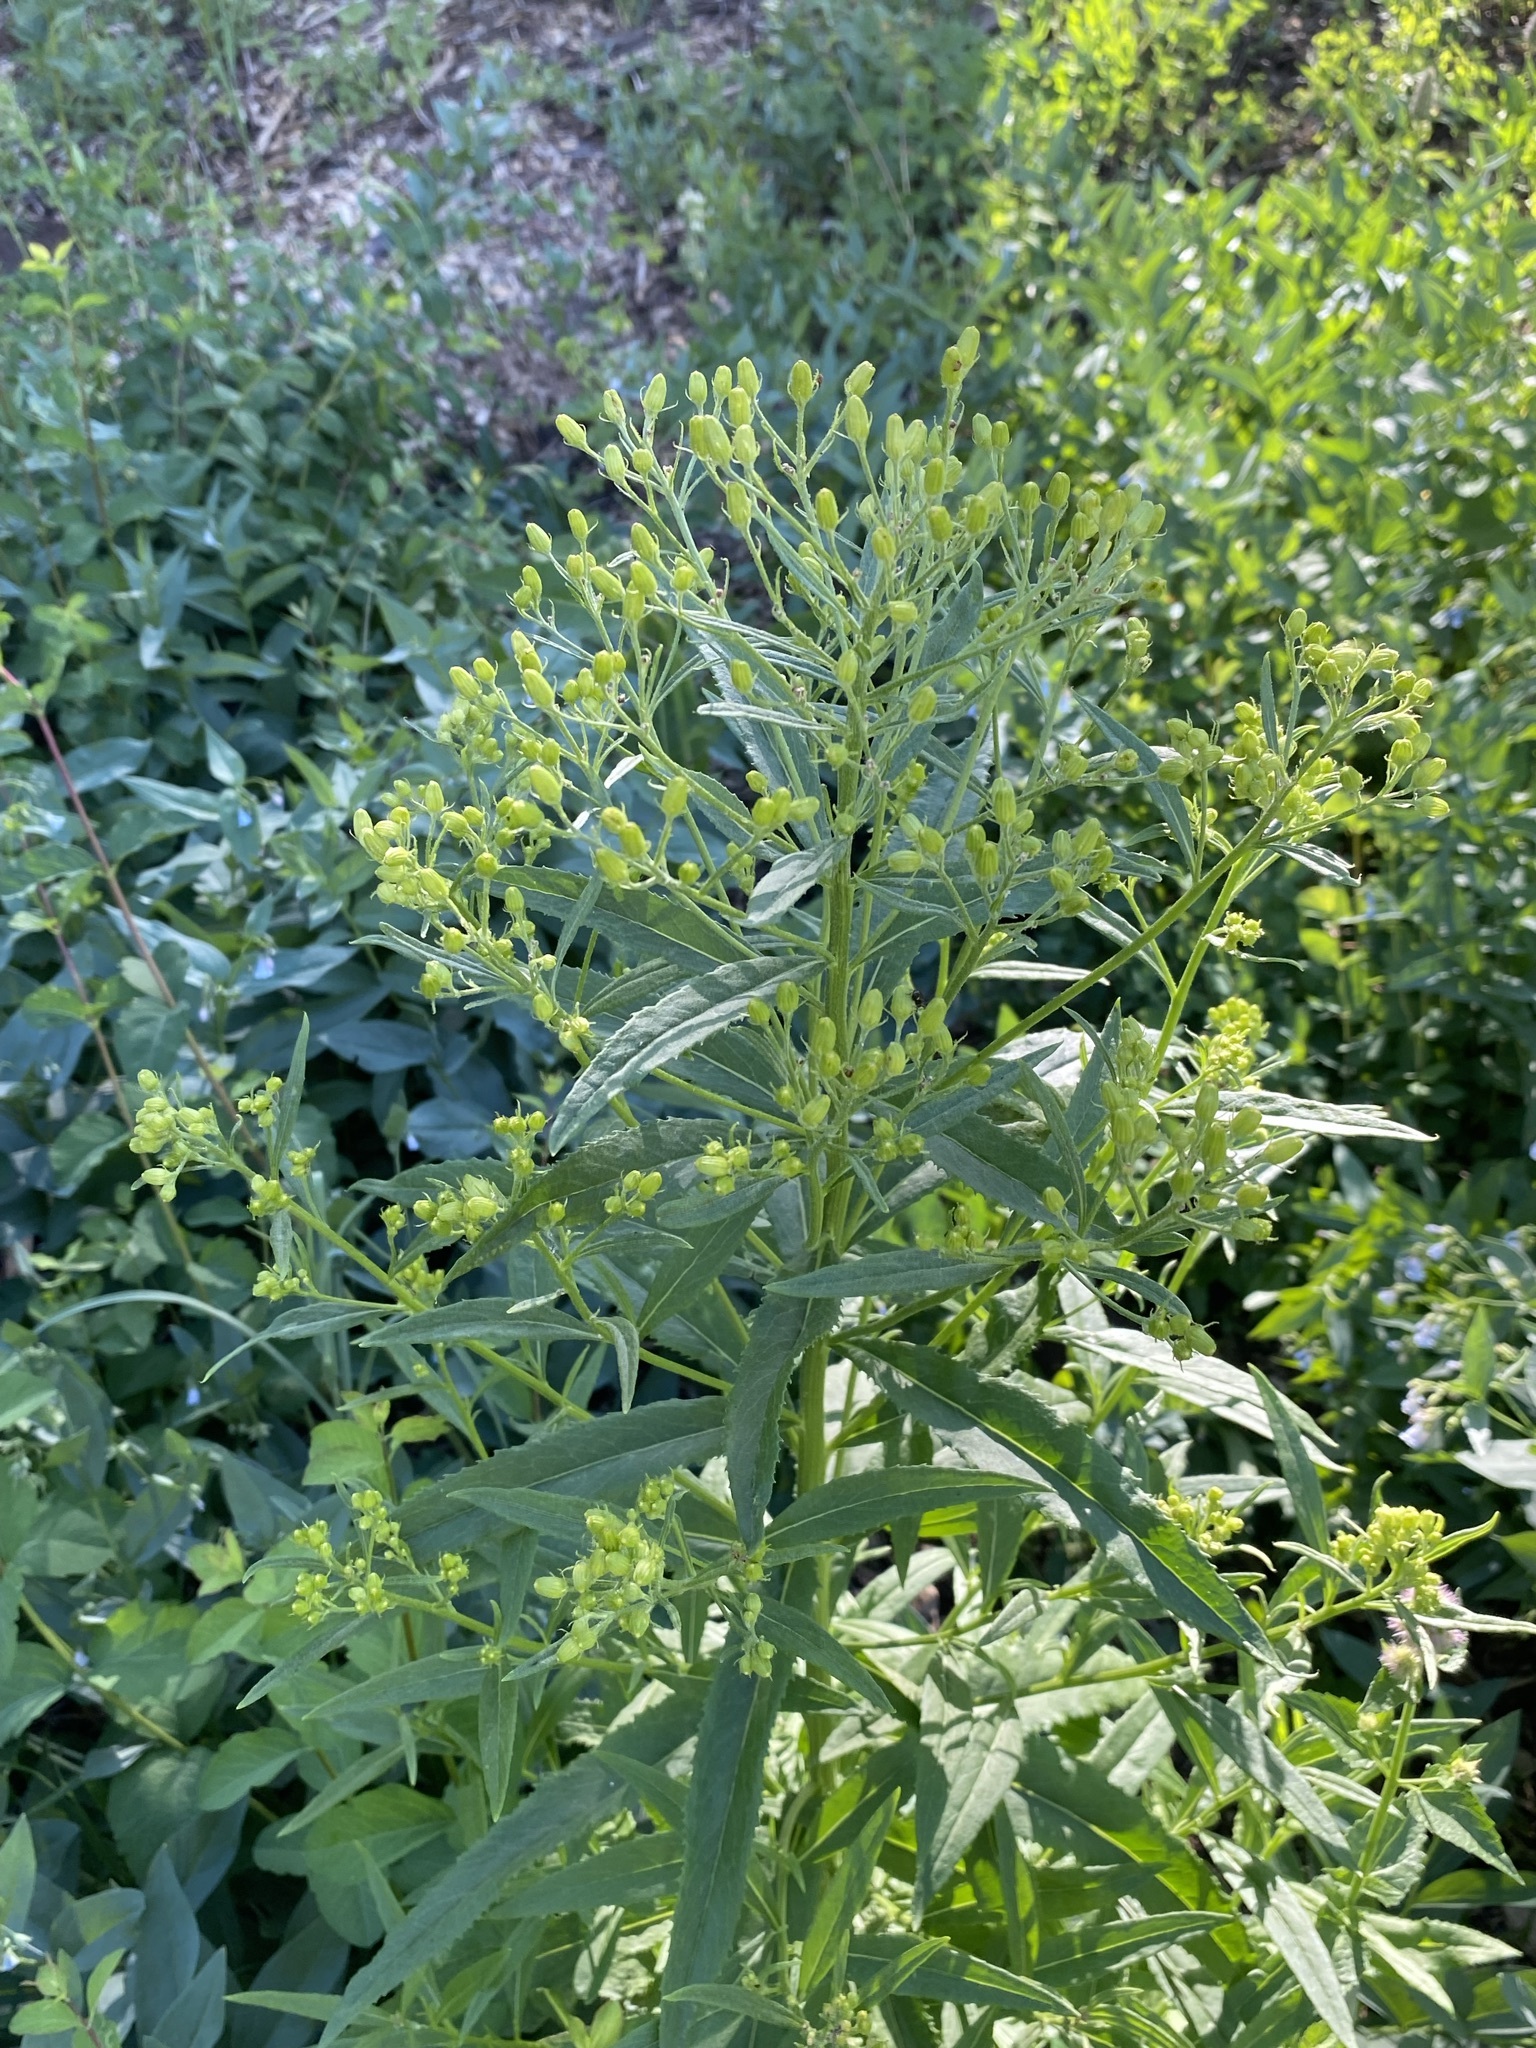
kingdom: Plantae
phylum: Tracheophyta
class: Magnoliopsida
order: Asterales
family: Asteraceae
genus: Senecio
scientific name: Senecio serra
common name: Tall ragwort
